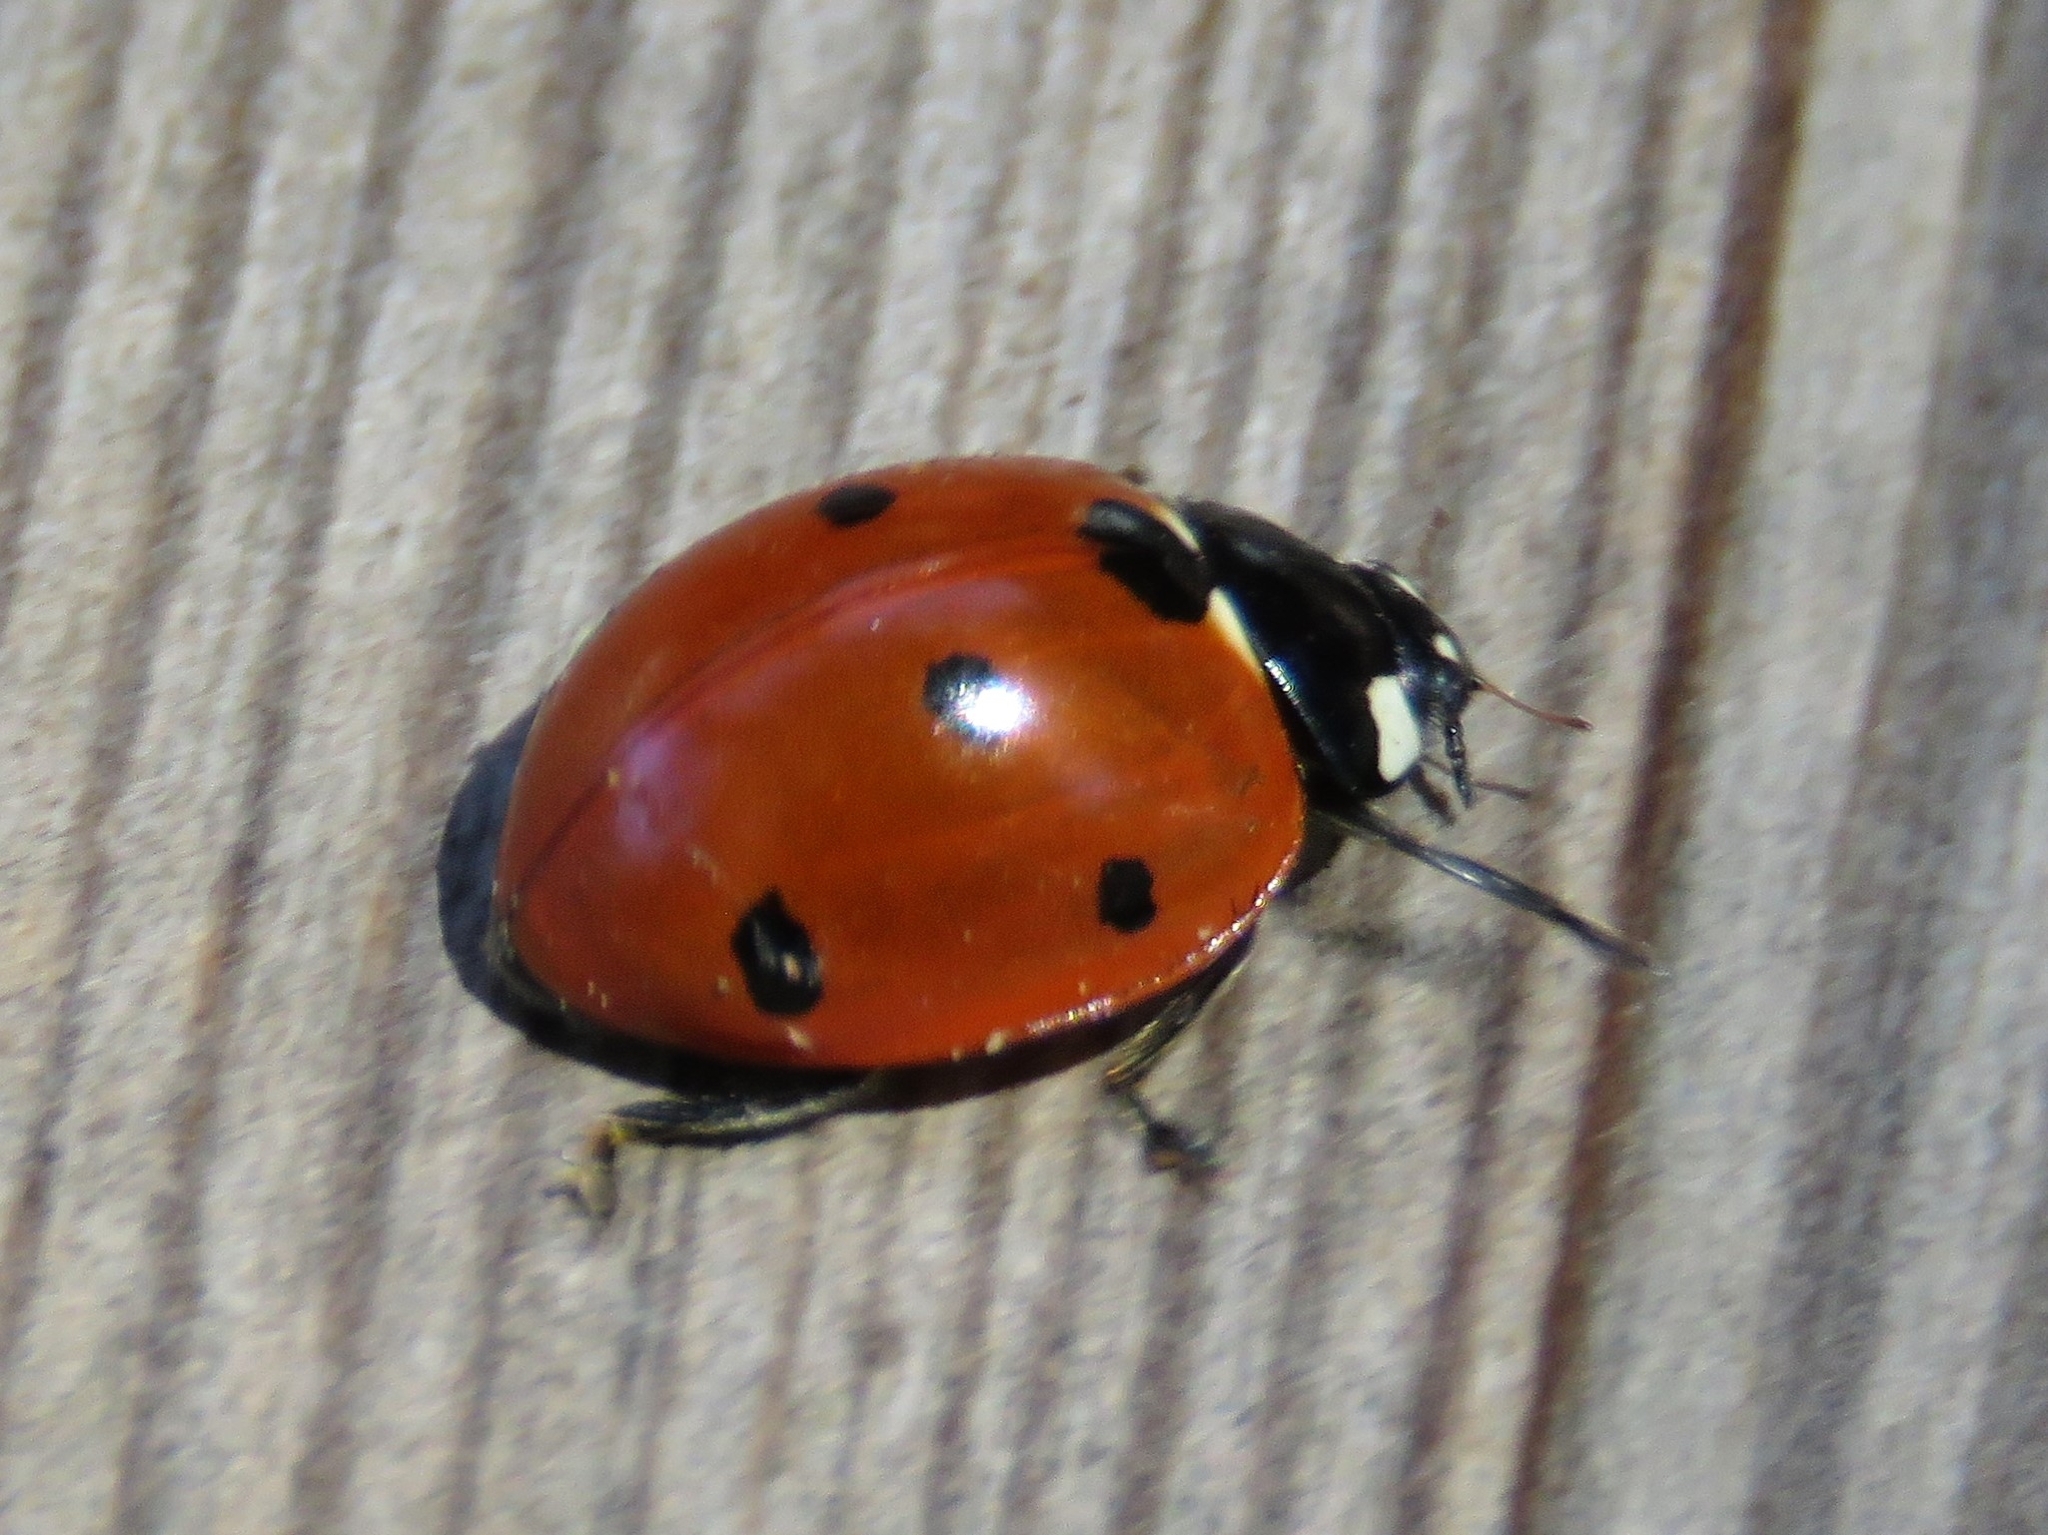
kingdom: Animalia
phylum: Arthropoda
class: Insecta
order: Coleoptera
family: Coccinellidae
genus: Coccinella
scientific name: Coccinella septempunctata
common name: Sevenspotted lady beetle
